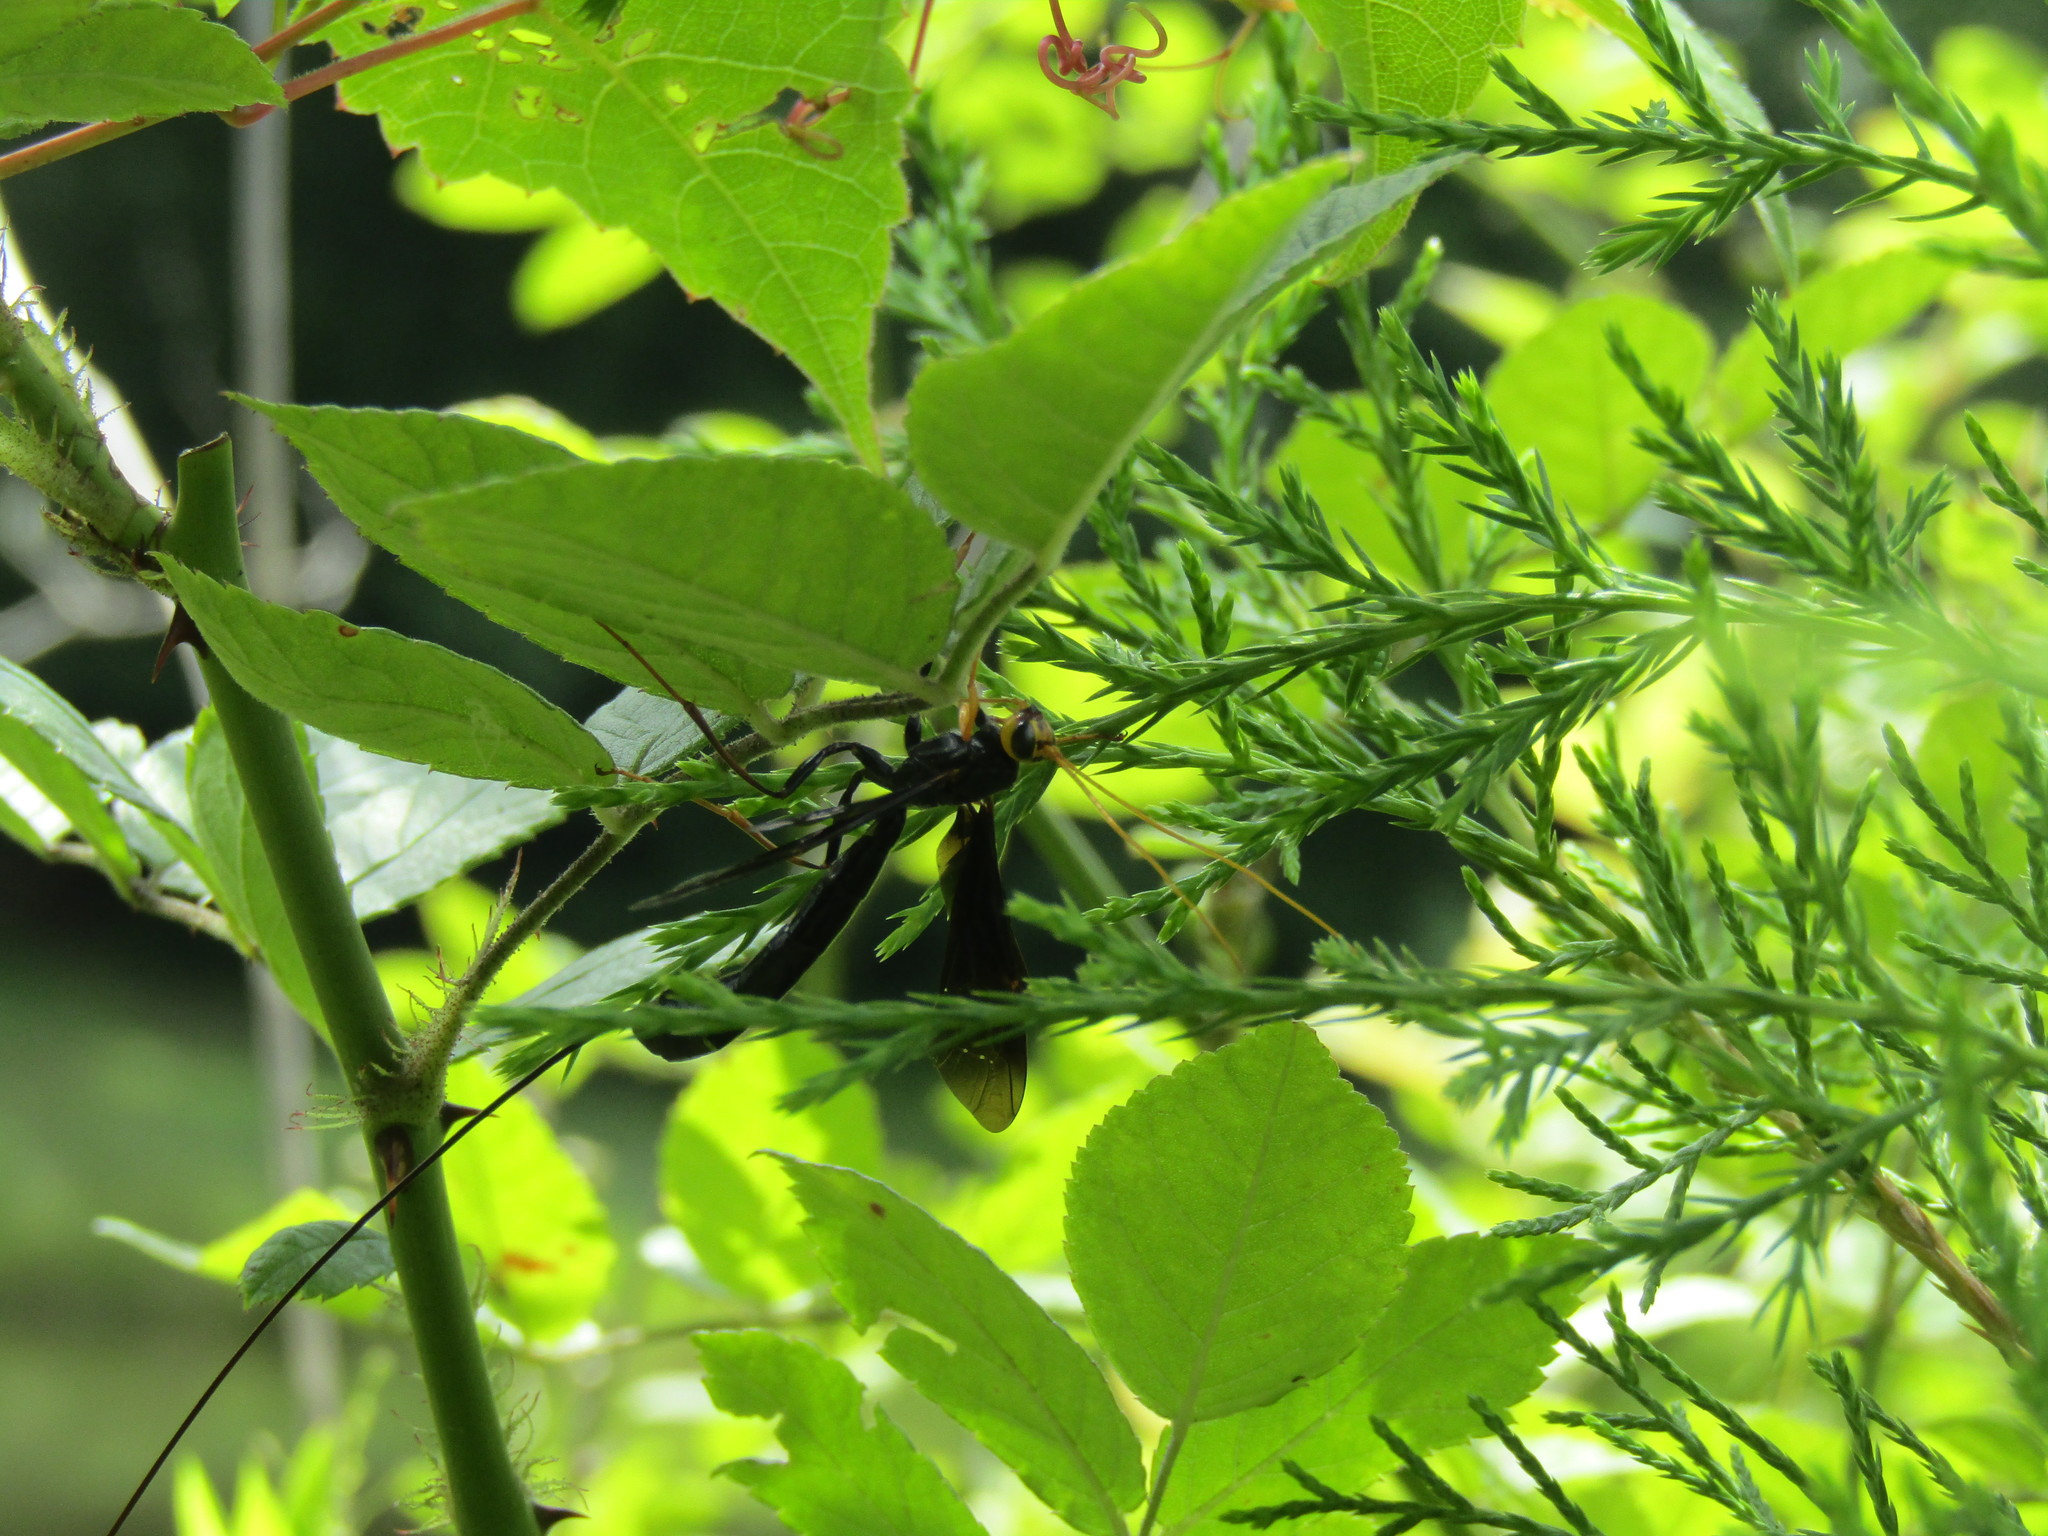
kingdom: Animalia
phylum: Arthropoda
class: Insecta
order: Hymenoptera
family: Ichneumonidae
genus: Megarhyssa
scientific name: Megarhyssa atrata
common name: Black giant ichneumonid wasp
